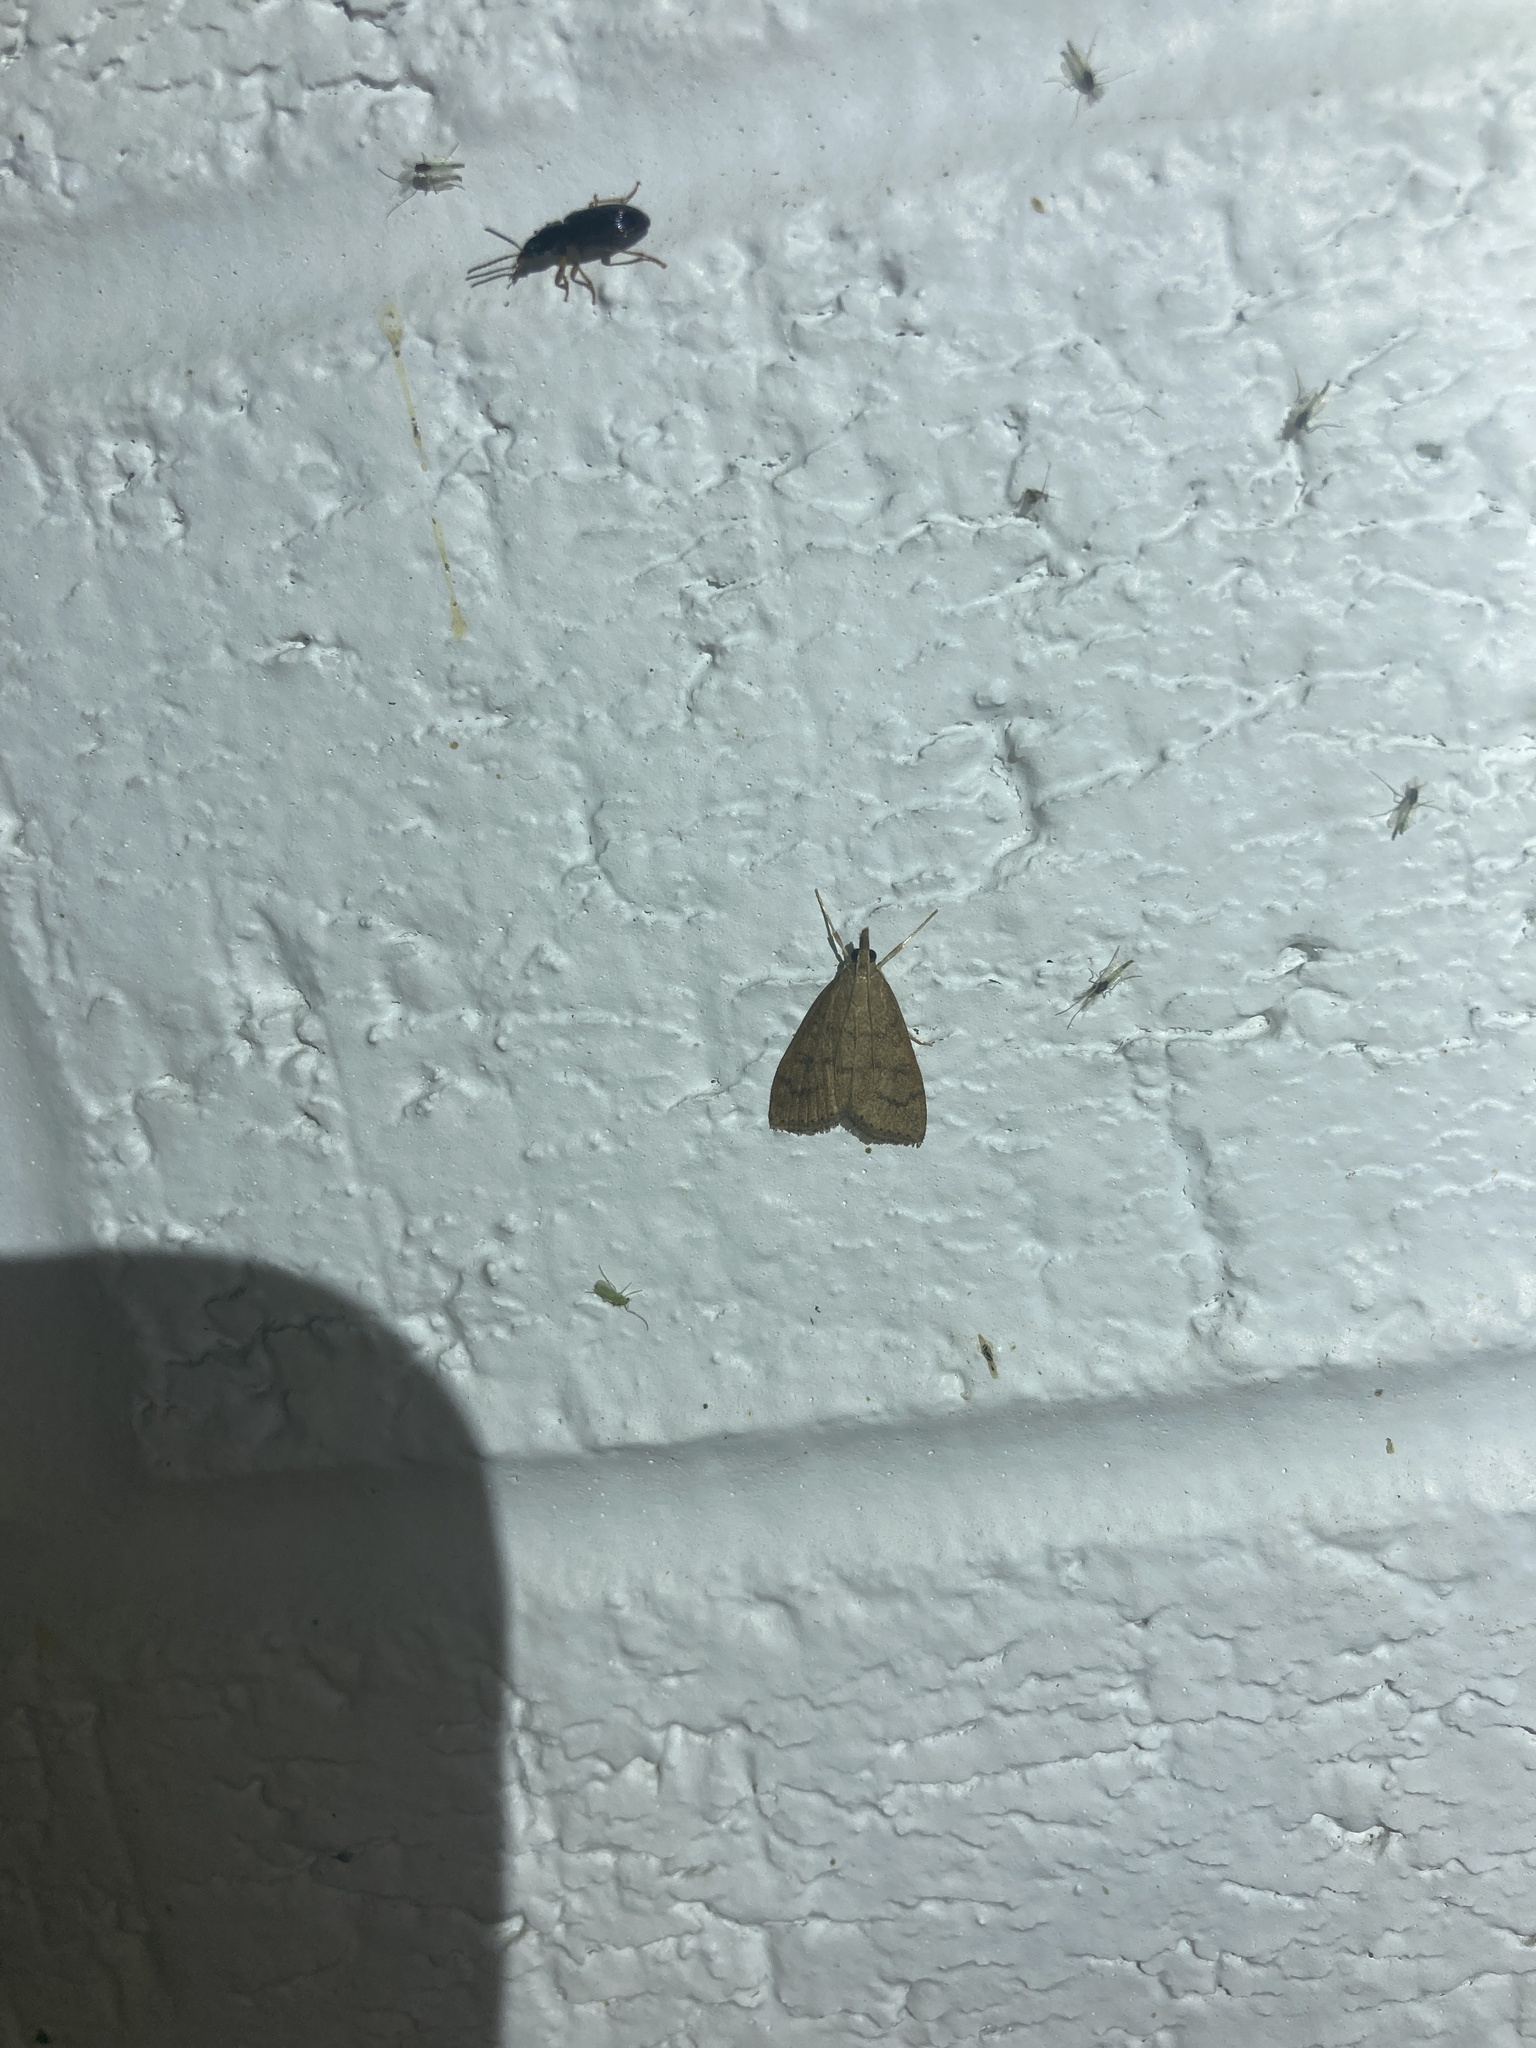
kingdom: Animalia
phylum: Arthropoda
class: Insecta
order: Lepidoptera
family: Crambidae
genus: Udea
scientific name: Udea rubigalis
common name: Celery leaftier moth
